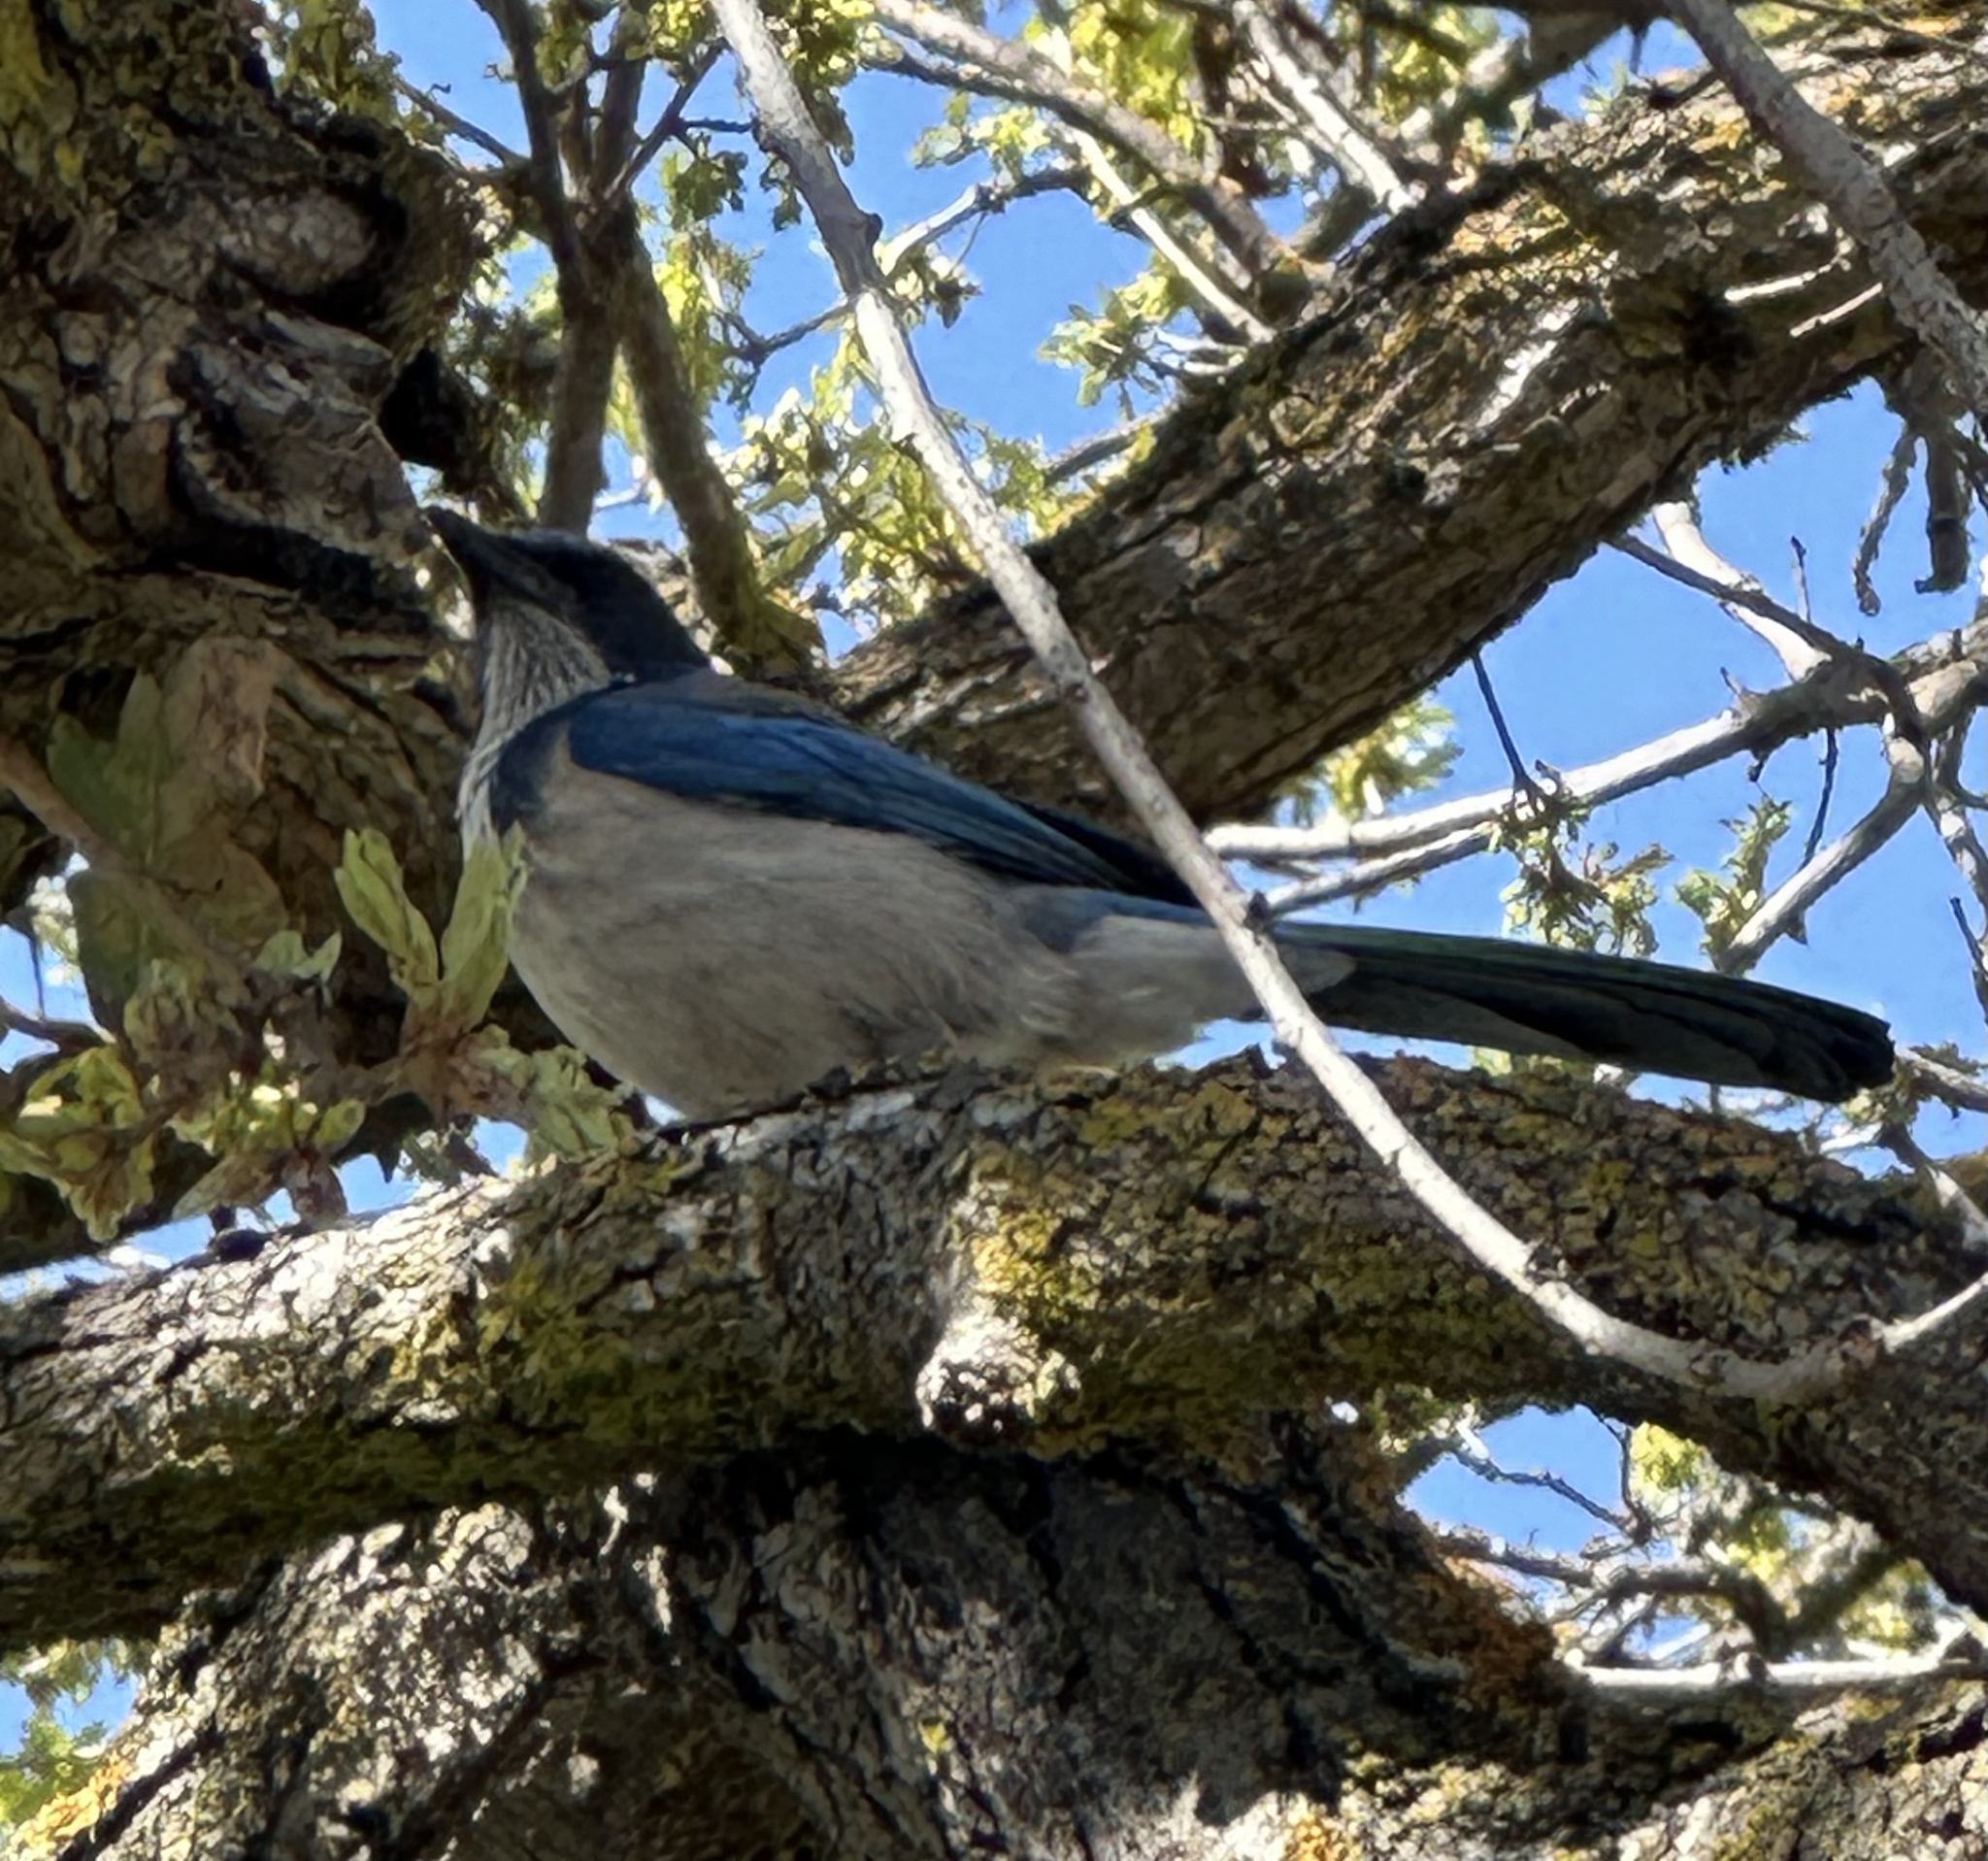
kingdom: Animalia
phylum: Chordata
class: Aves
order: Passeriformes
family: Corvidae
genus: Aphelocoma
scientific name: Aphelocoma californica
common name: California scrub-jay
